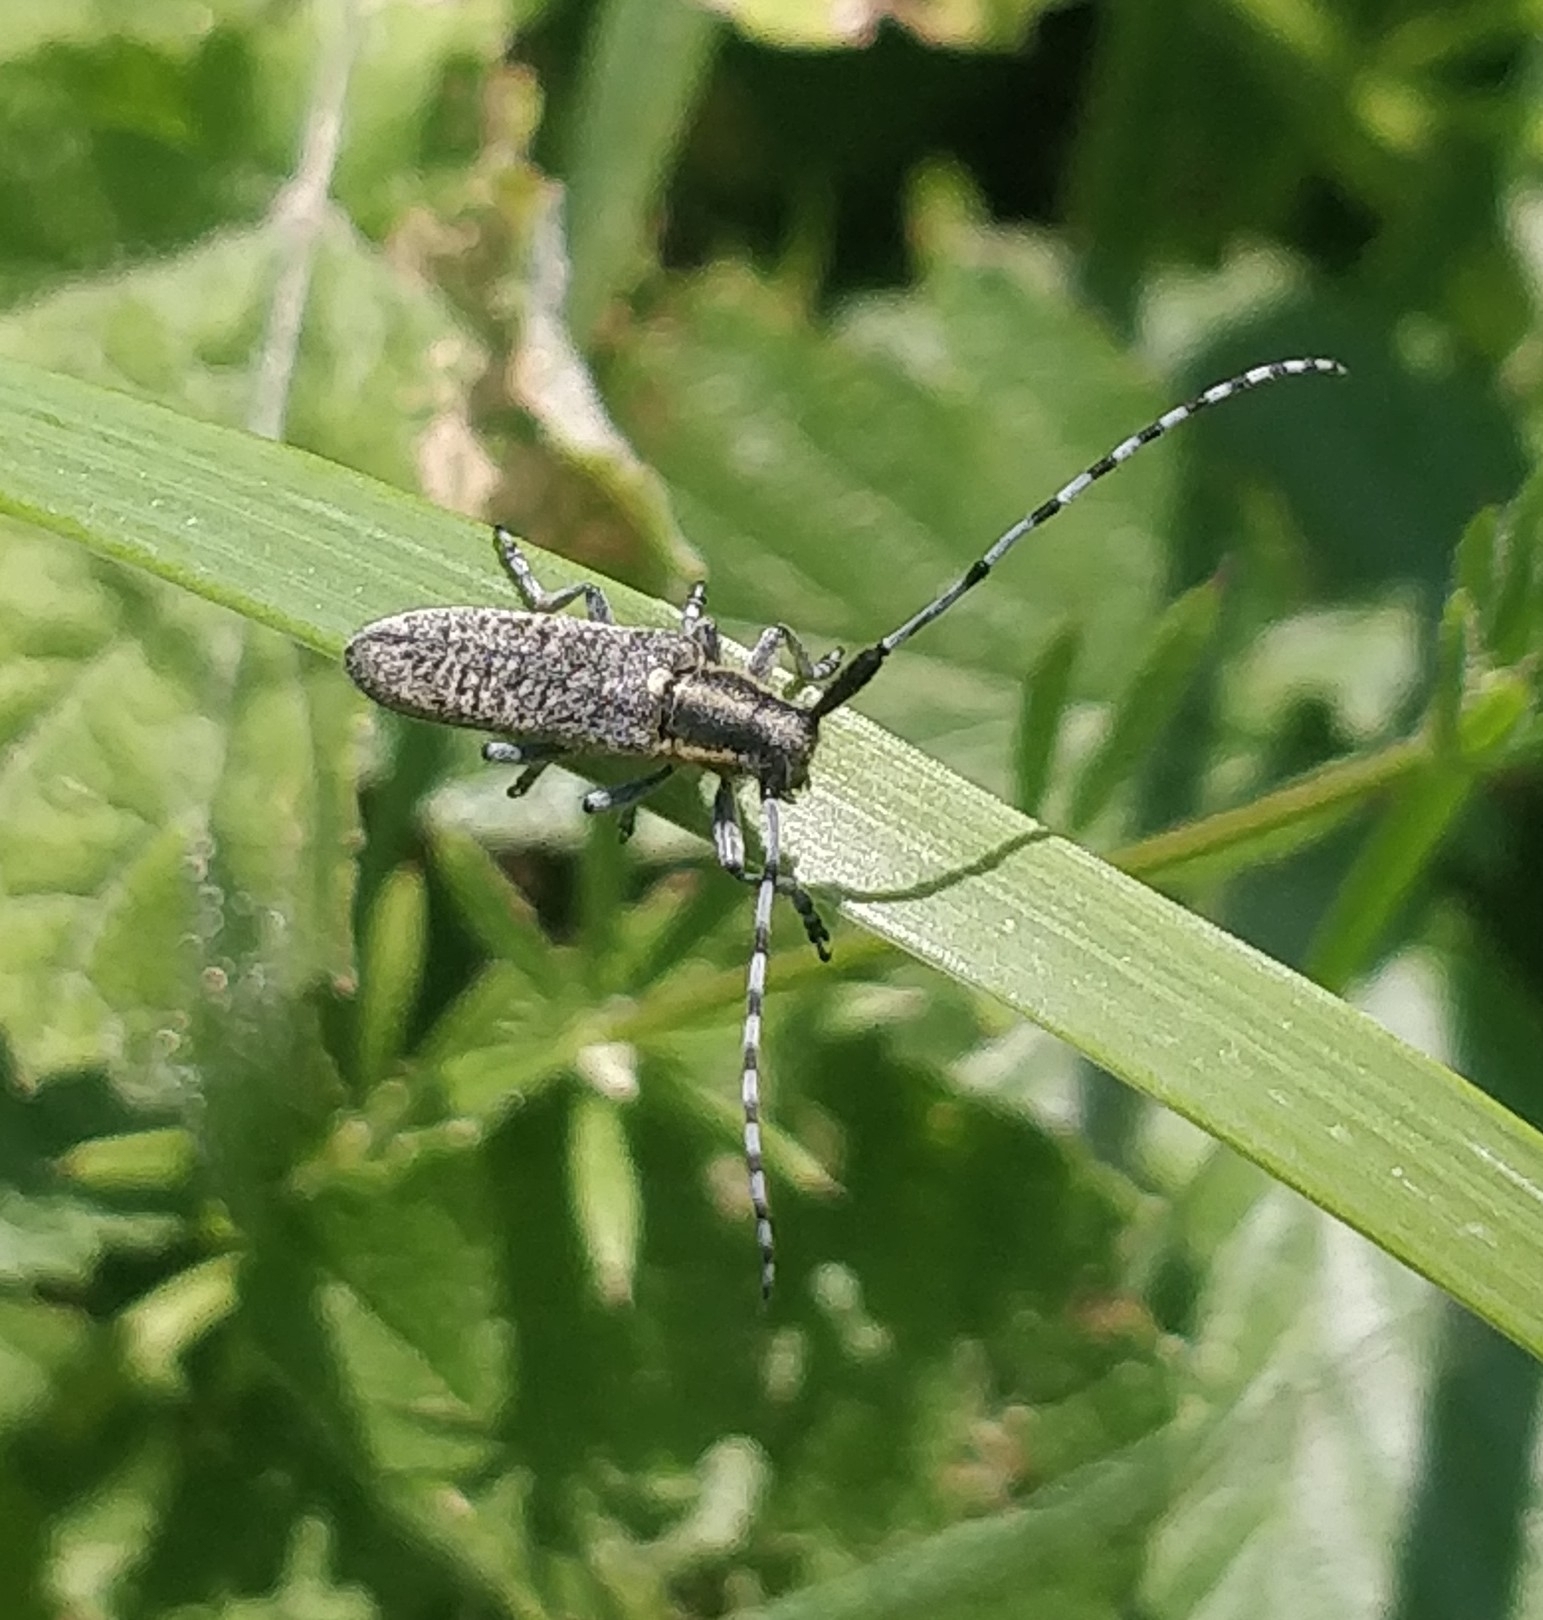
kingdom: Animalia
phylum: Arthropoda
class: Insecta
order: Coleoptera
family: Cerambycidae
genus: Agapanthia
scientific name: Agapanthia villosoviridescens
